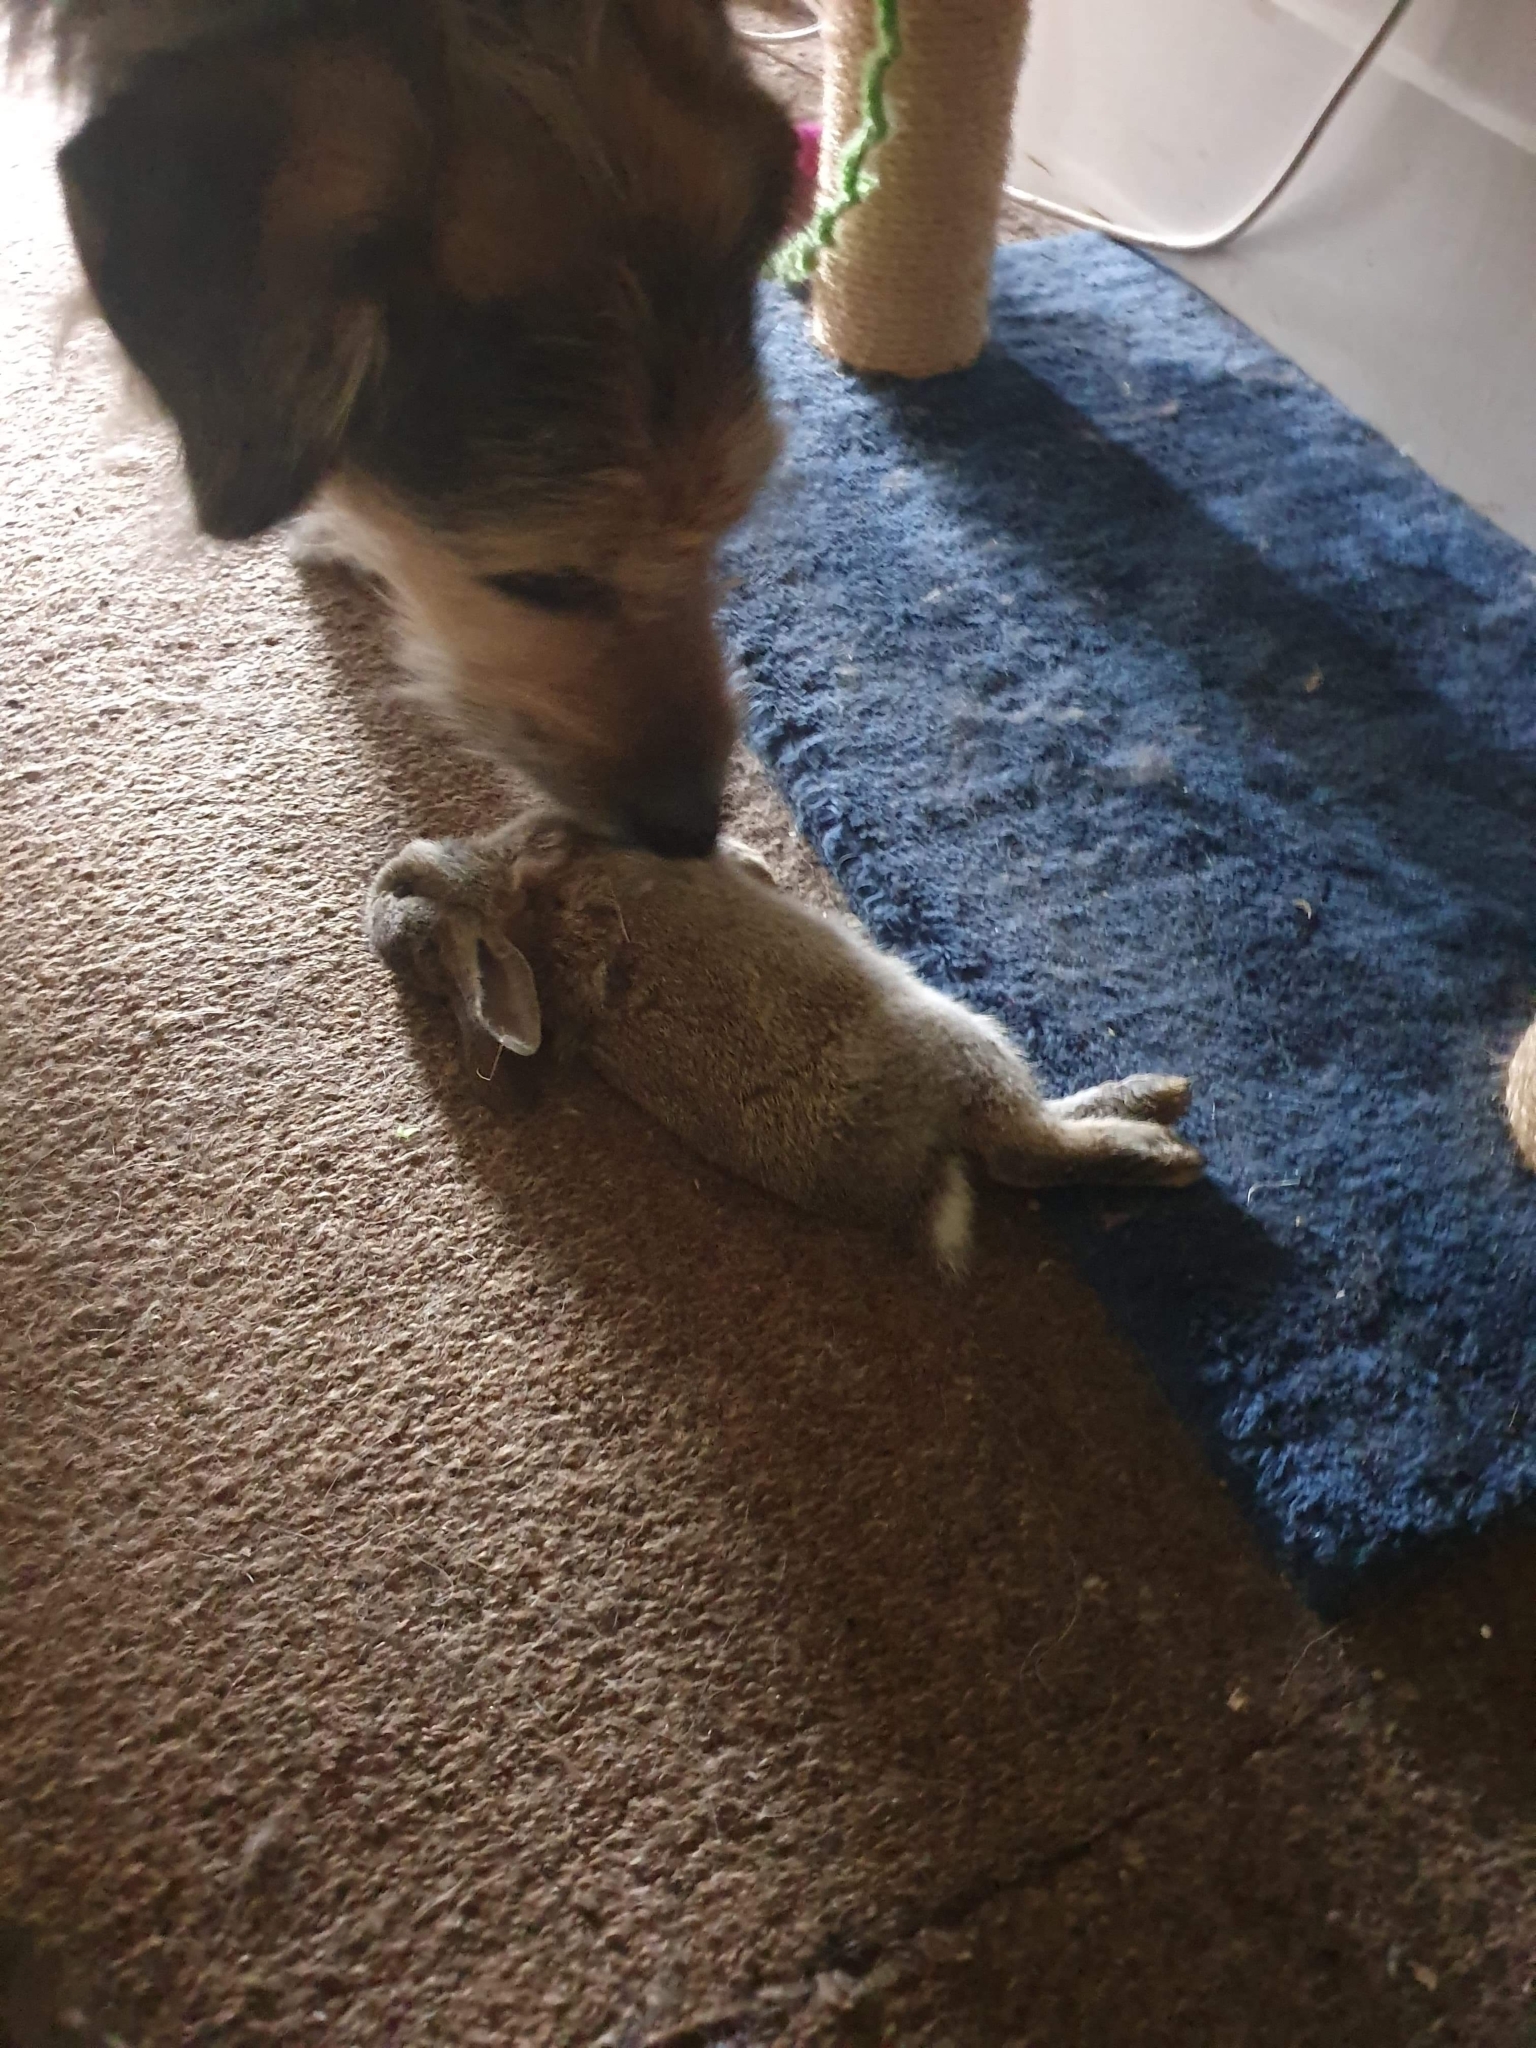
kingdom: Animalia
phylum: Chordata
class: Mammalia
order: Lagomorpha
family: Leporidae
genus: Oryctolagus
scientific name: Oryctolagus cuniculus
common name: European rabbit
